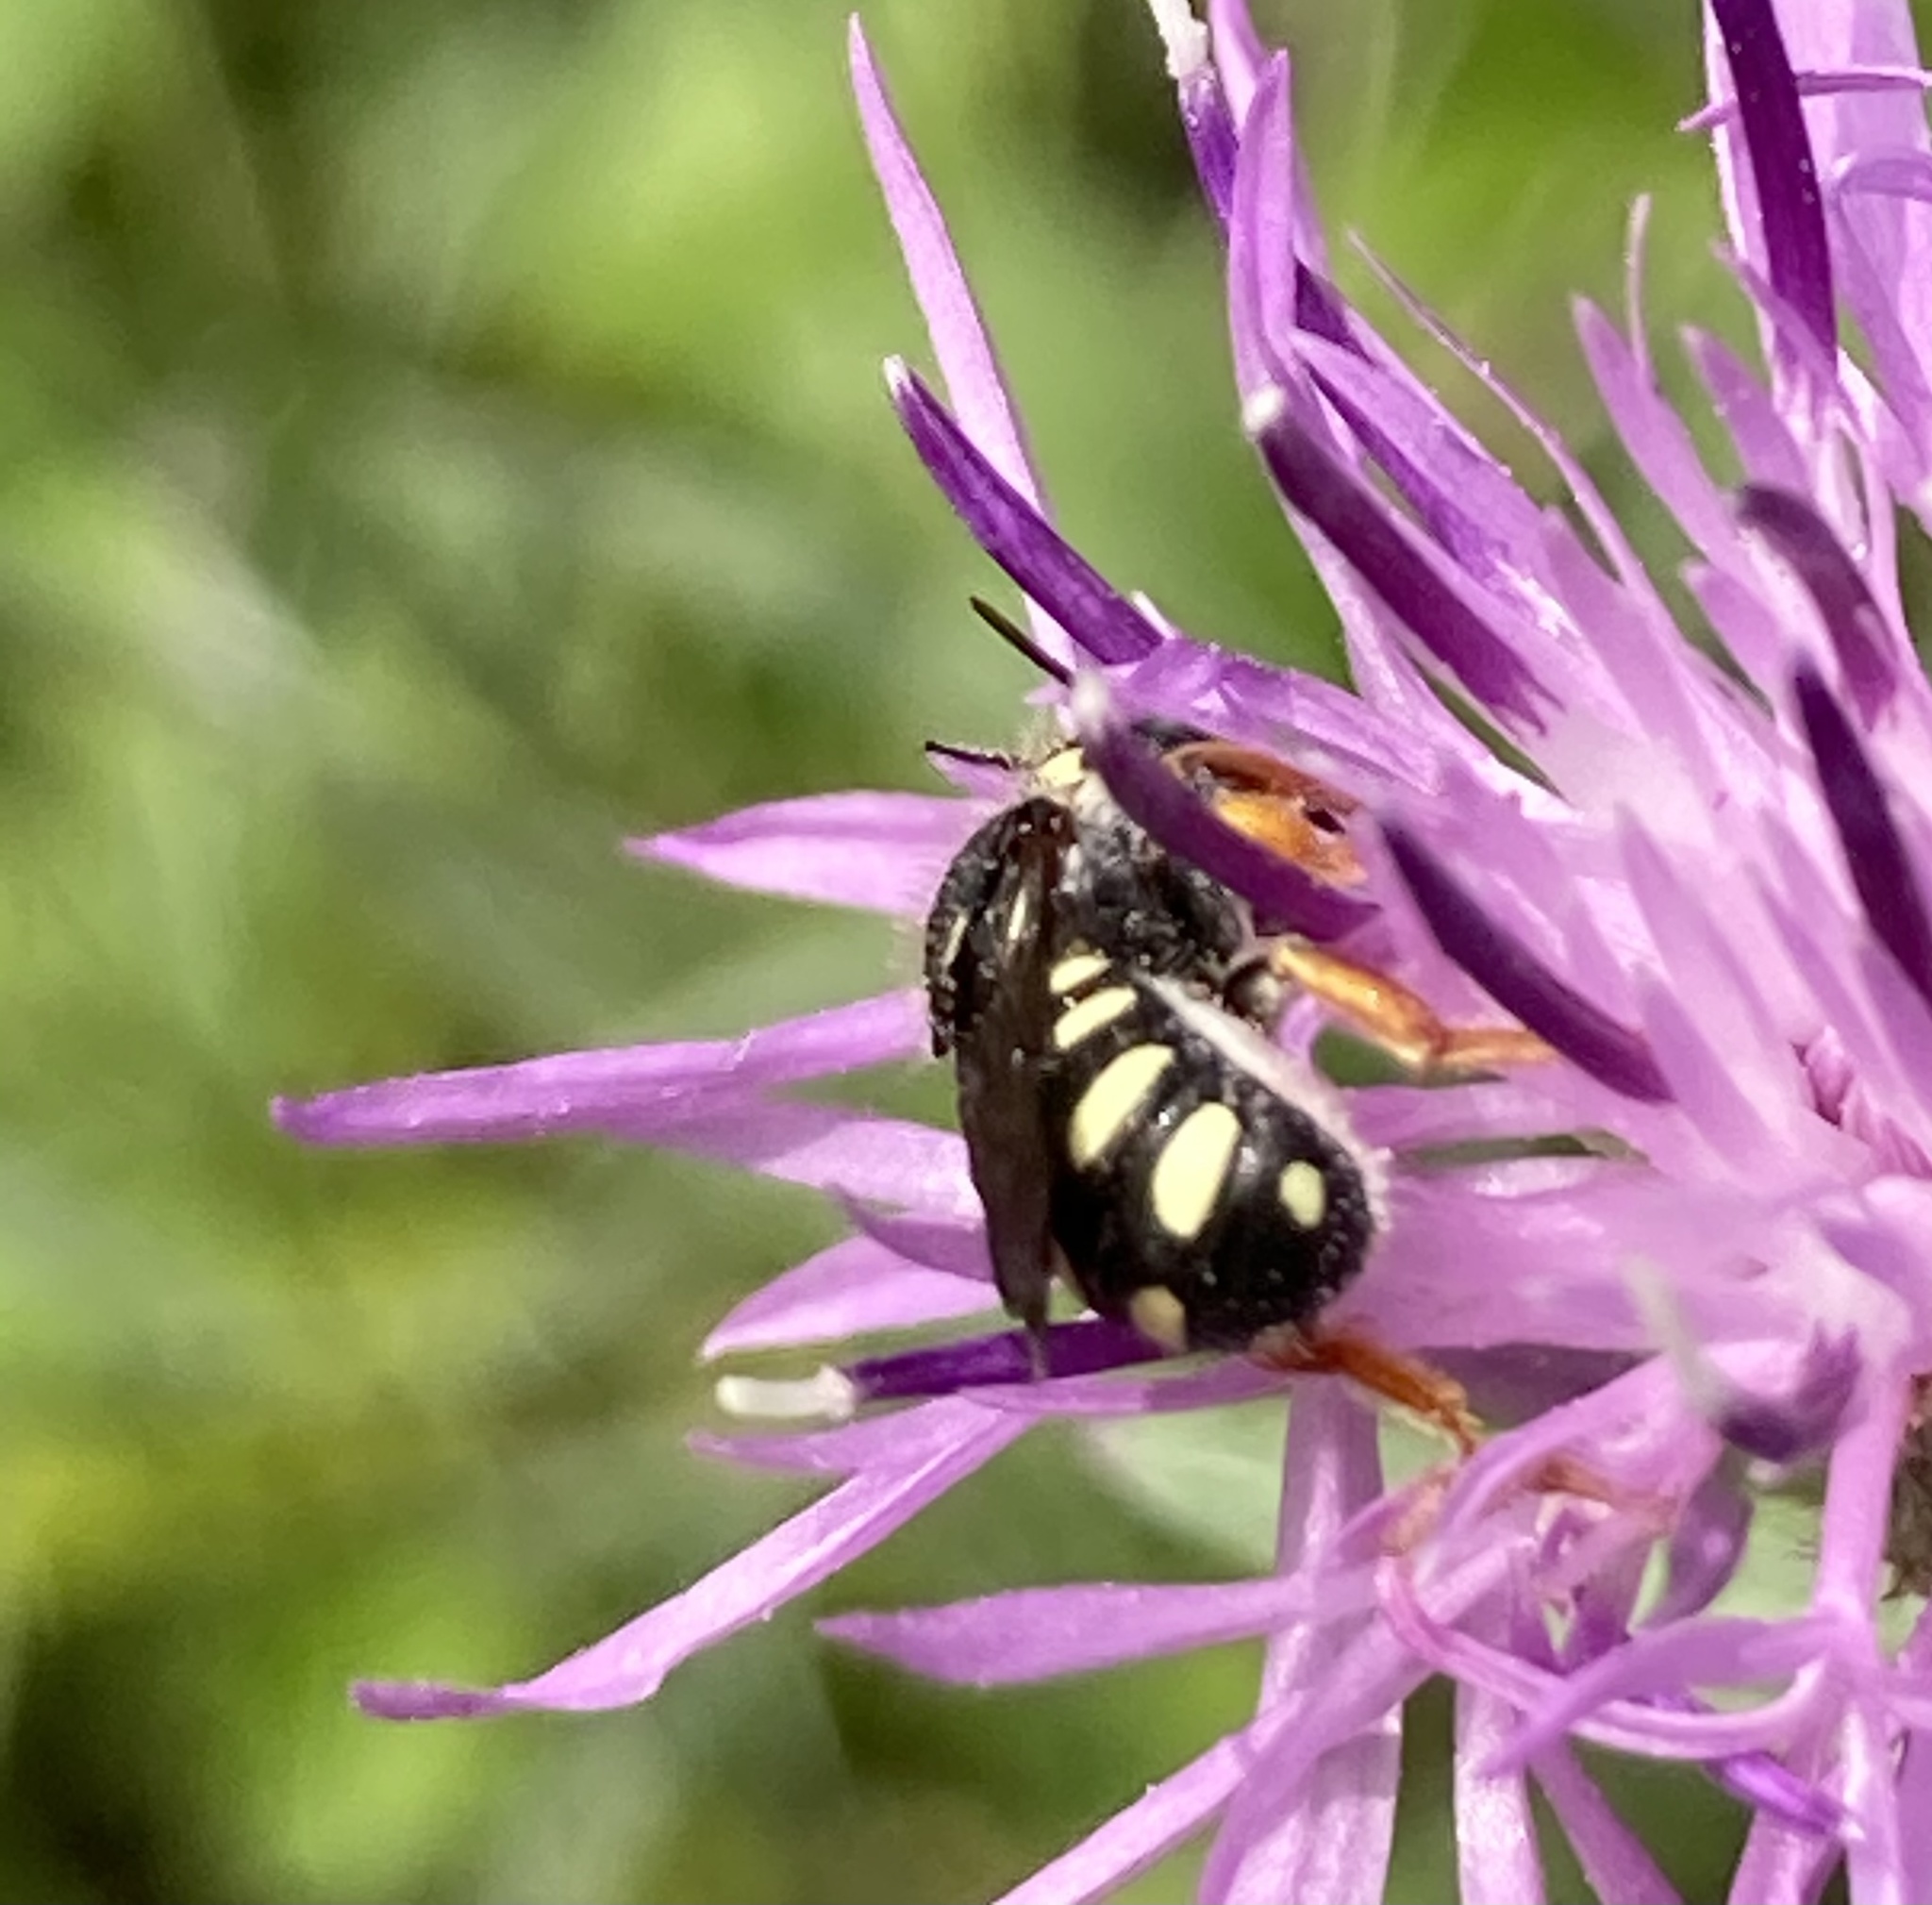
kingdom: Animalia
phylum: Arthropoda
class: Insecta
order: Hymenoptera
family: Megachilidae
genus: Pseudoanthidium
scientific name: Pseudoanthidium nanum
